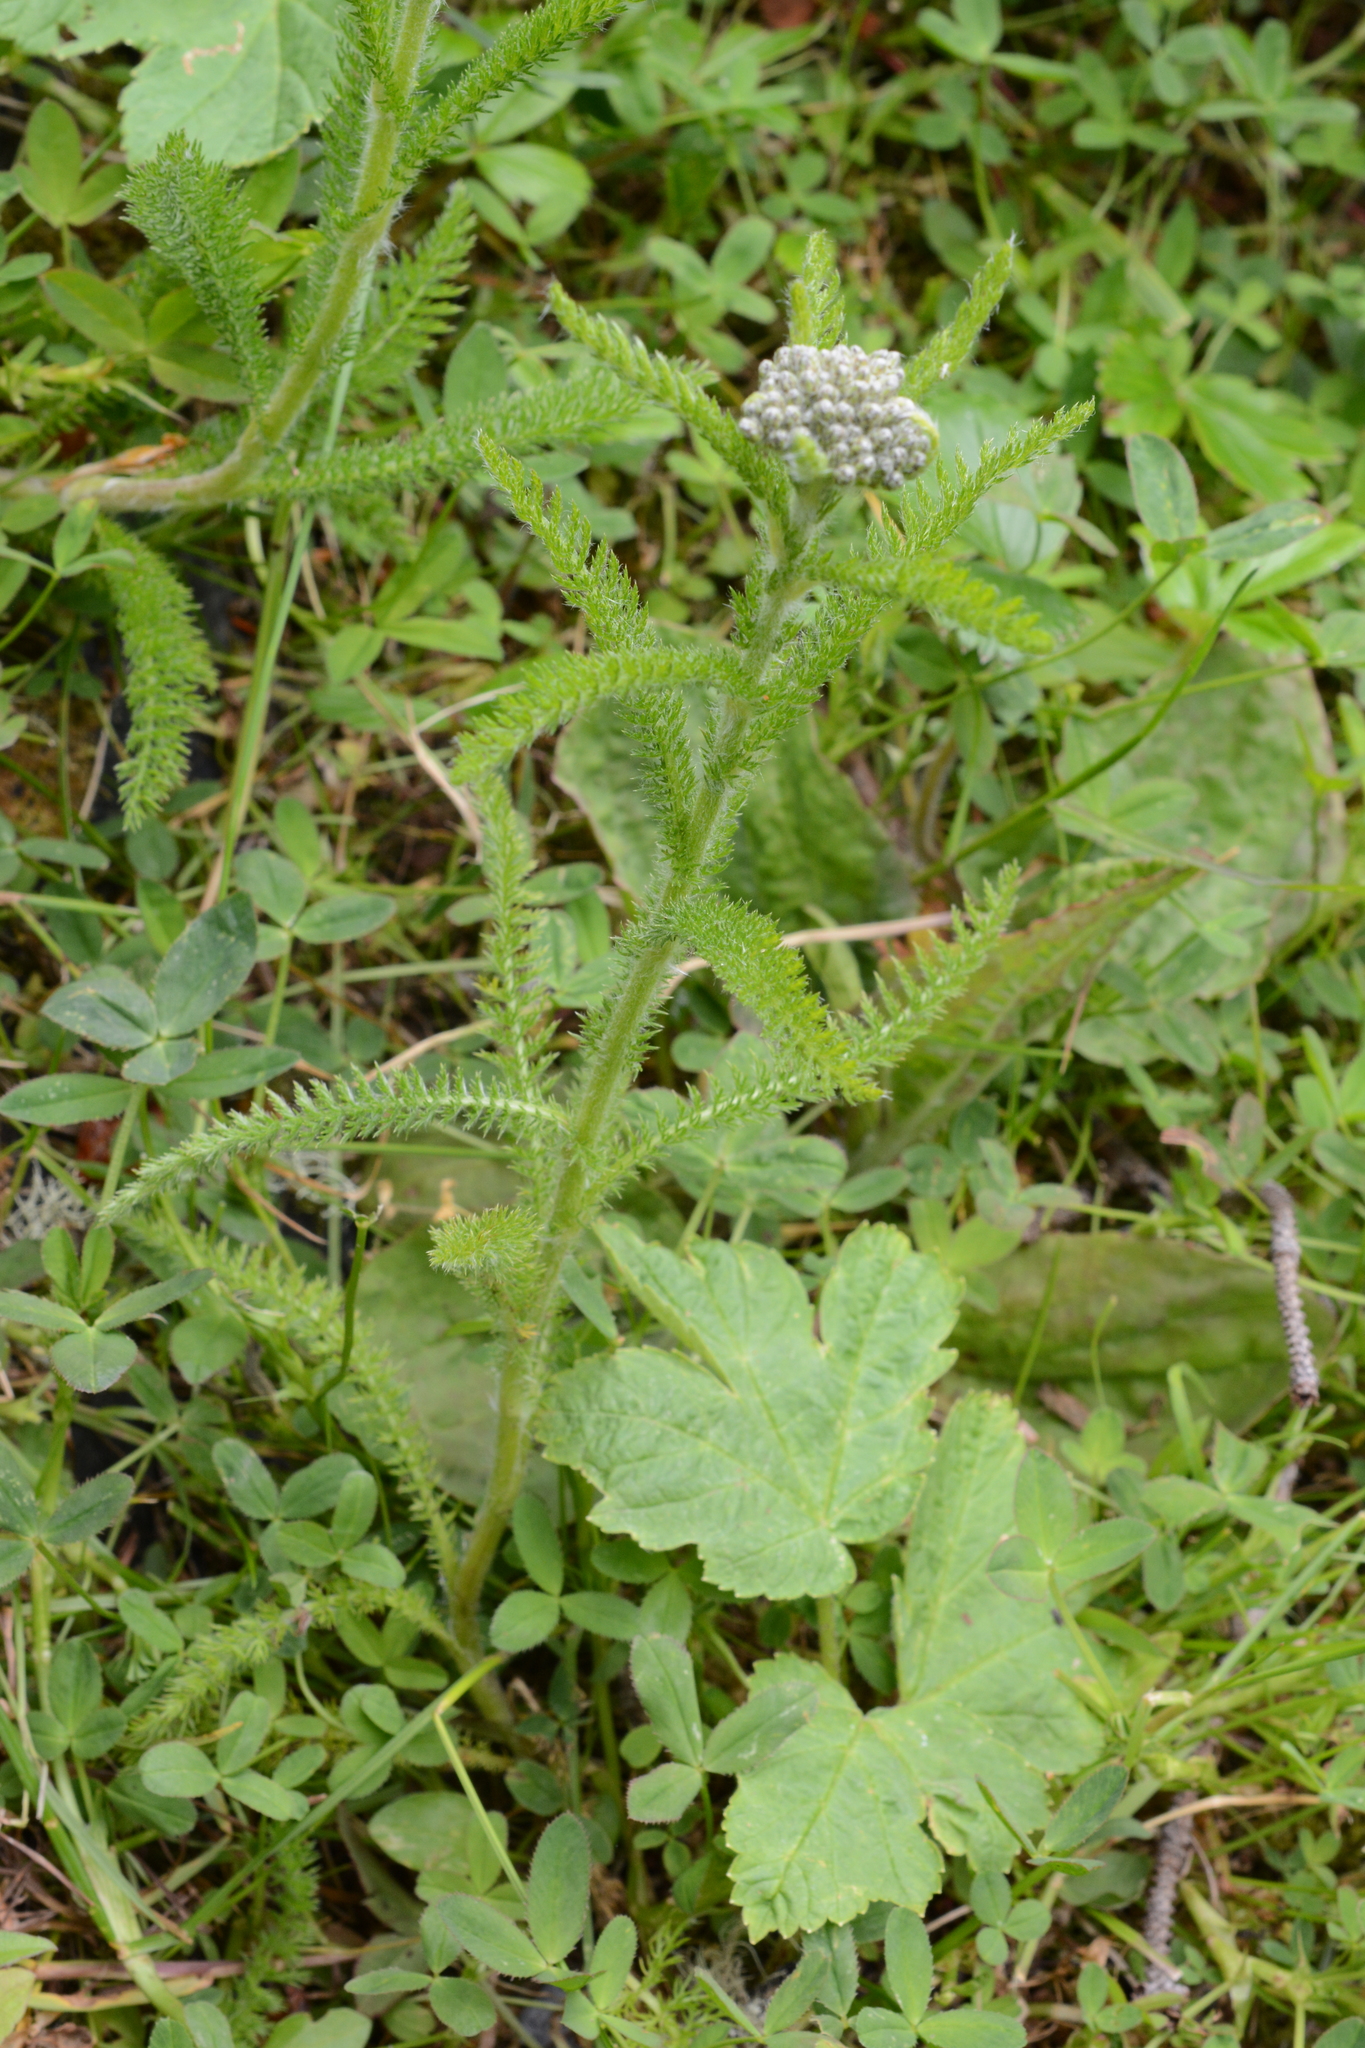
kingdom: Plantae
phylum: Tracheophyta
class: Magnoliopsida
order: Asterales
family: Asteraceae
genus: Achillea
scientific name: Achillea millefolium
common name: Yarrow
